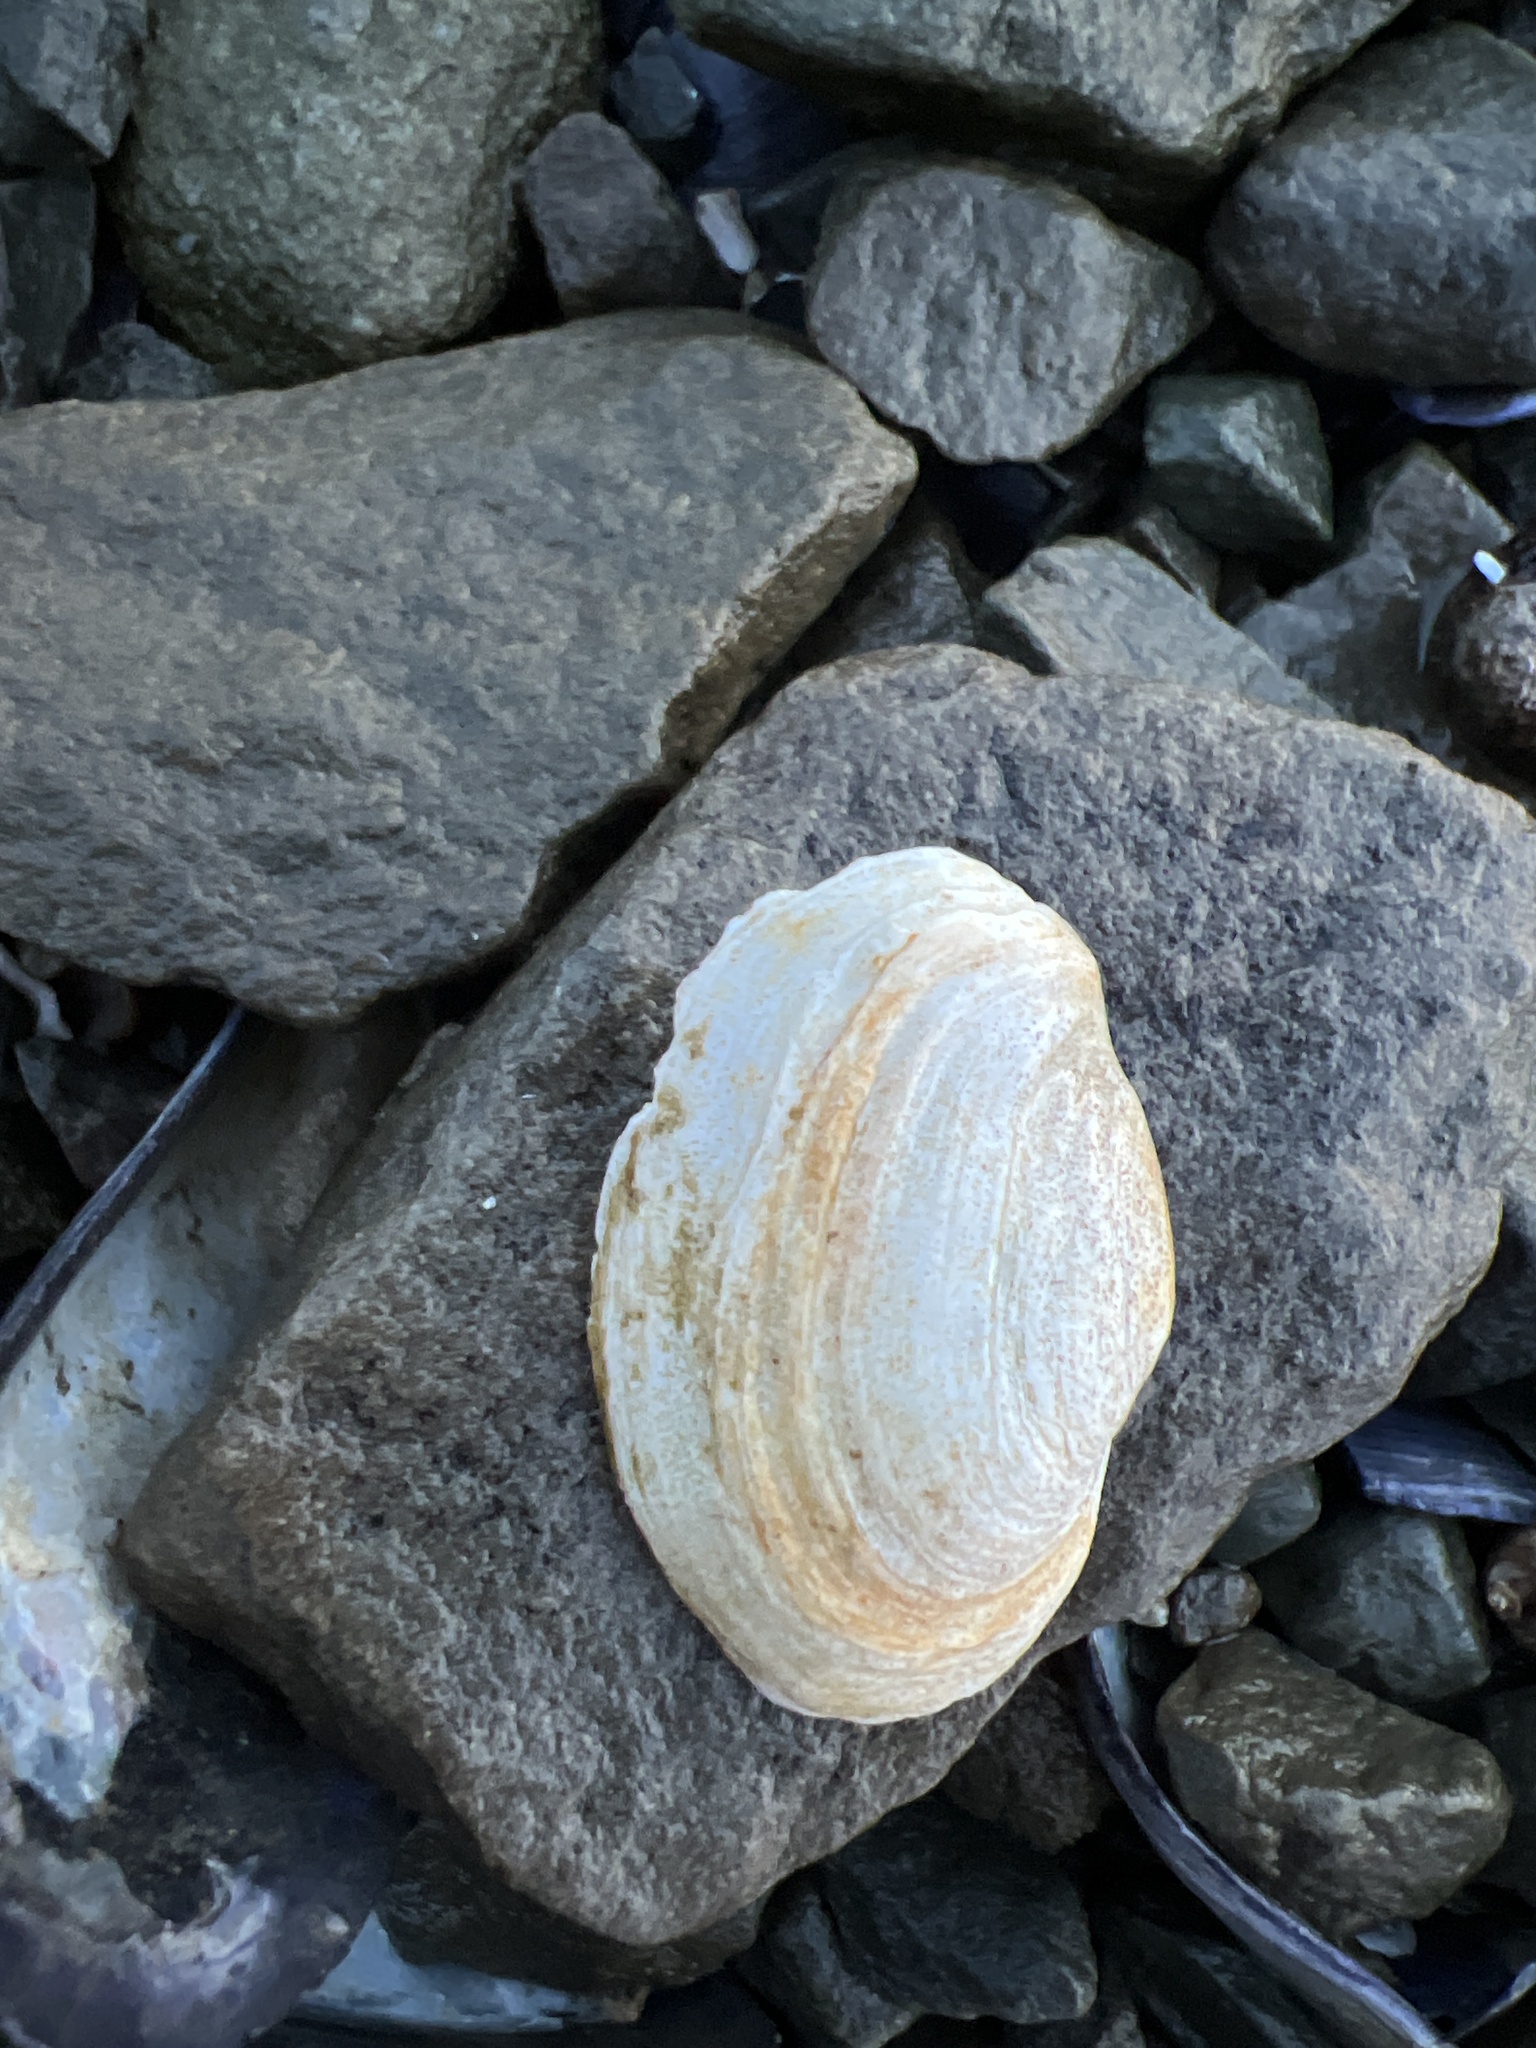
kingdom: Animalia
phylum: Mollusca
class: Bivalvia
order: Myida
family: Myidae
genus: Mya
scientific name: Mya arenaria
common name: Soft-shelled clam
